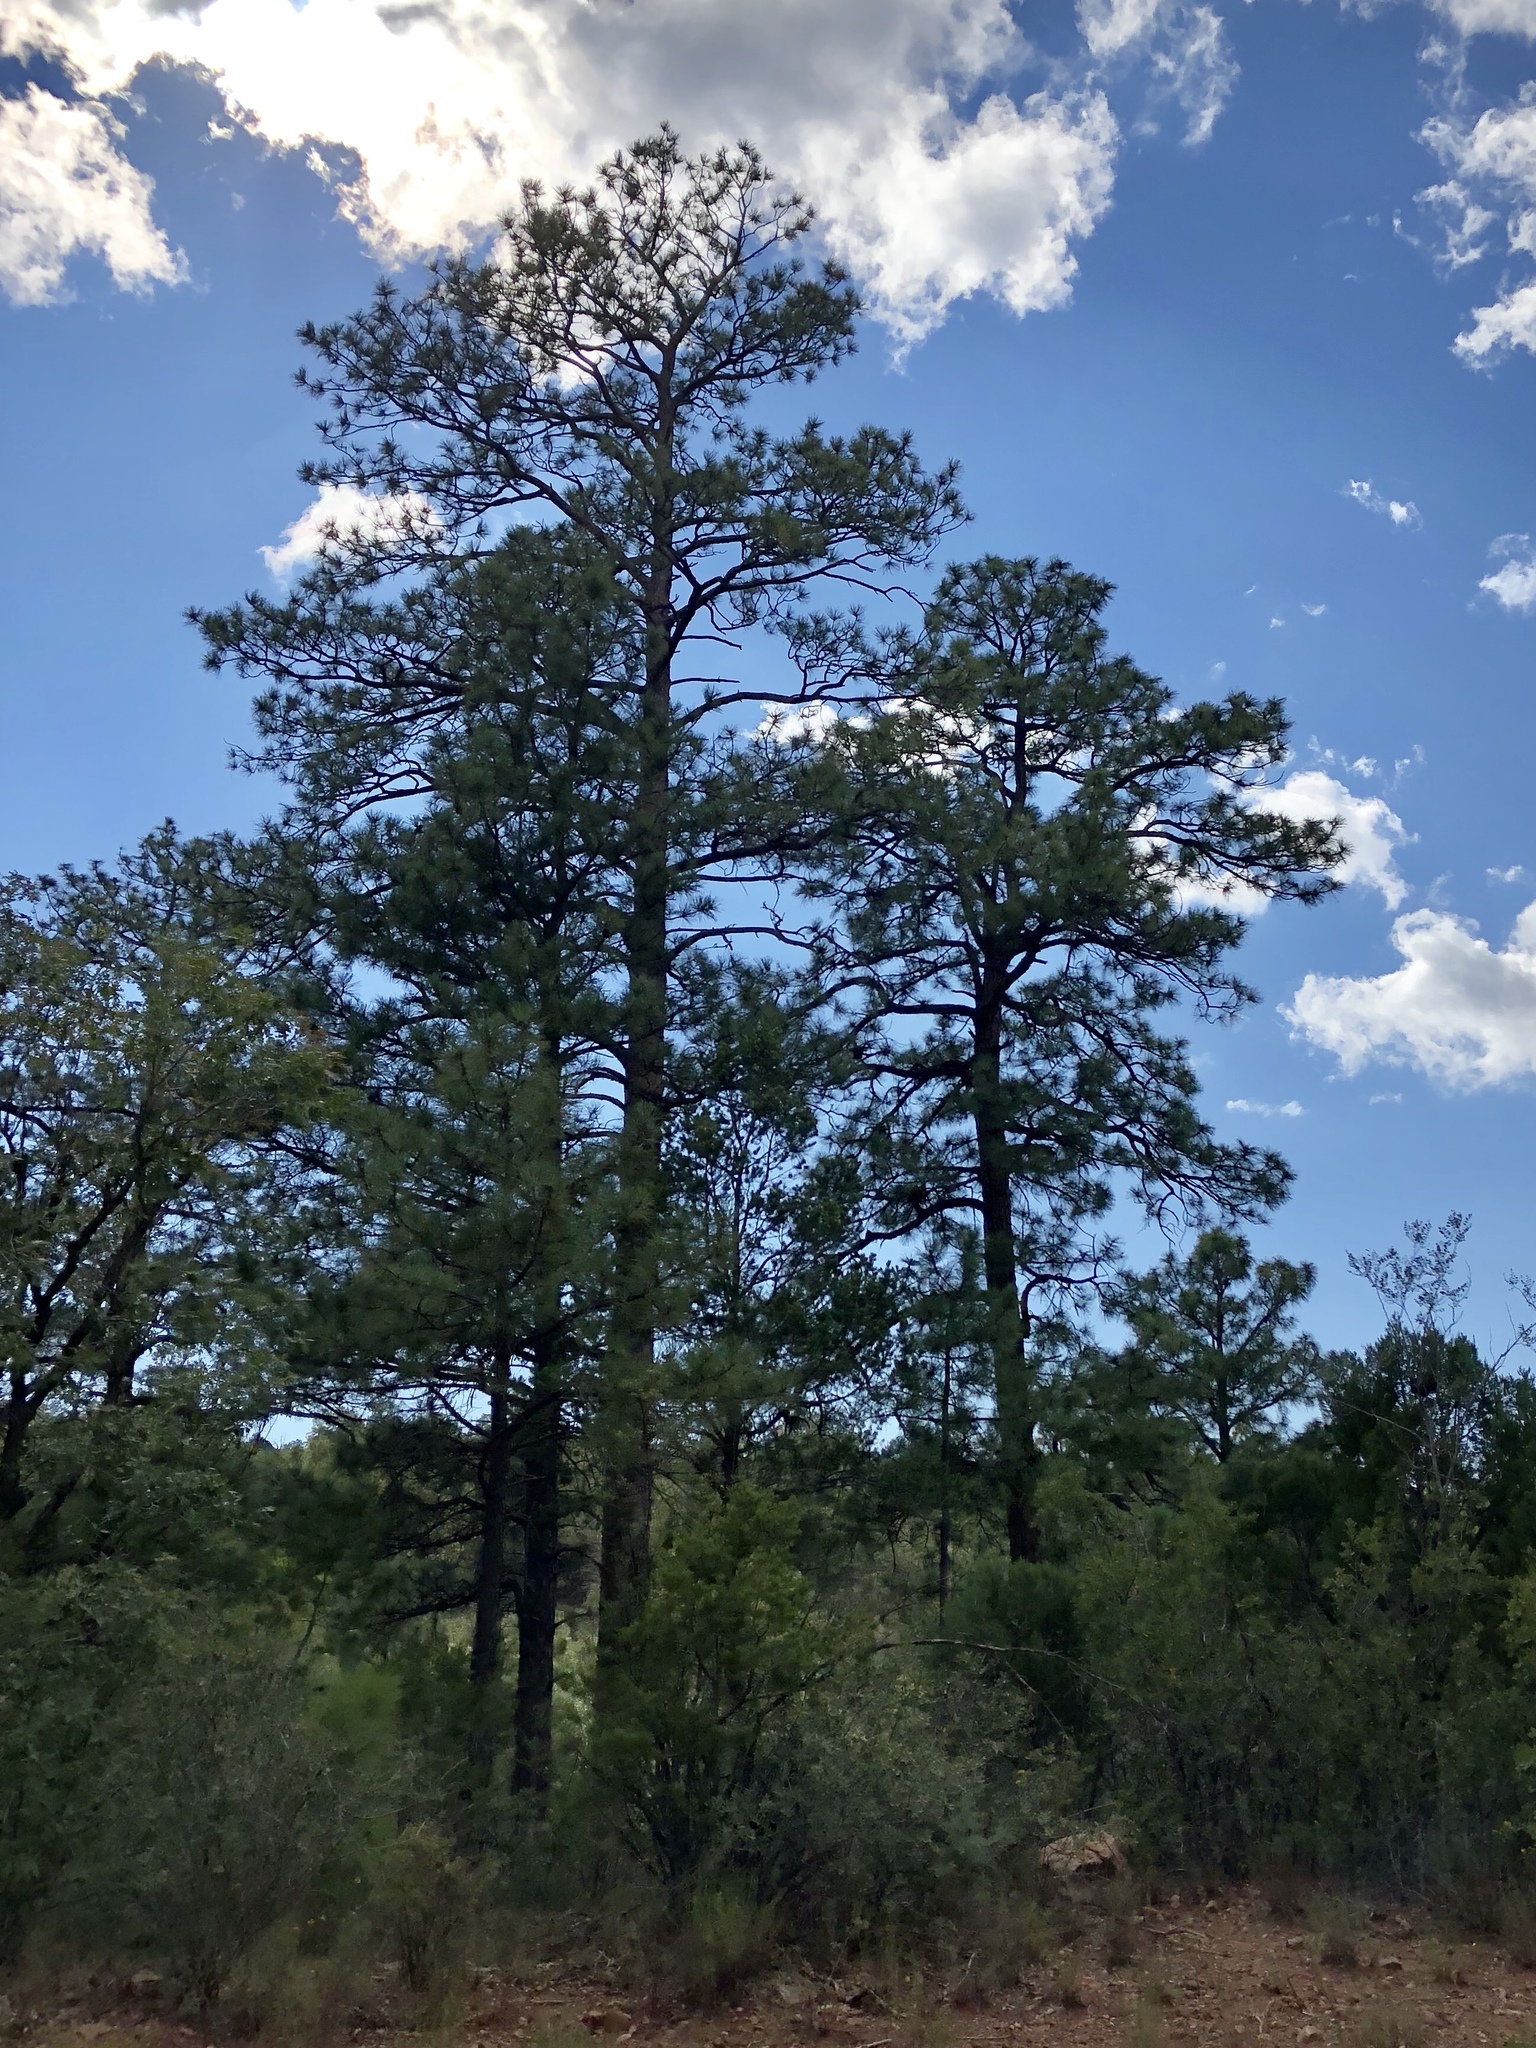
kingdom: Plantae
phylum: Tracheophyta
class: Pinopsida
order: Pinales
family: Pinaceae
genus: Pinus
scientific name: Pinus ponderosa
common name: Western yellow-pine
